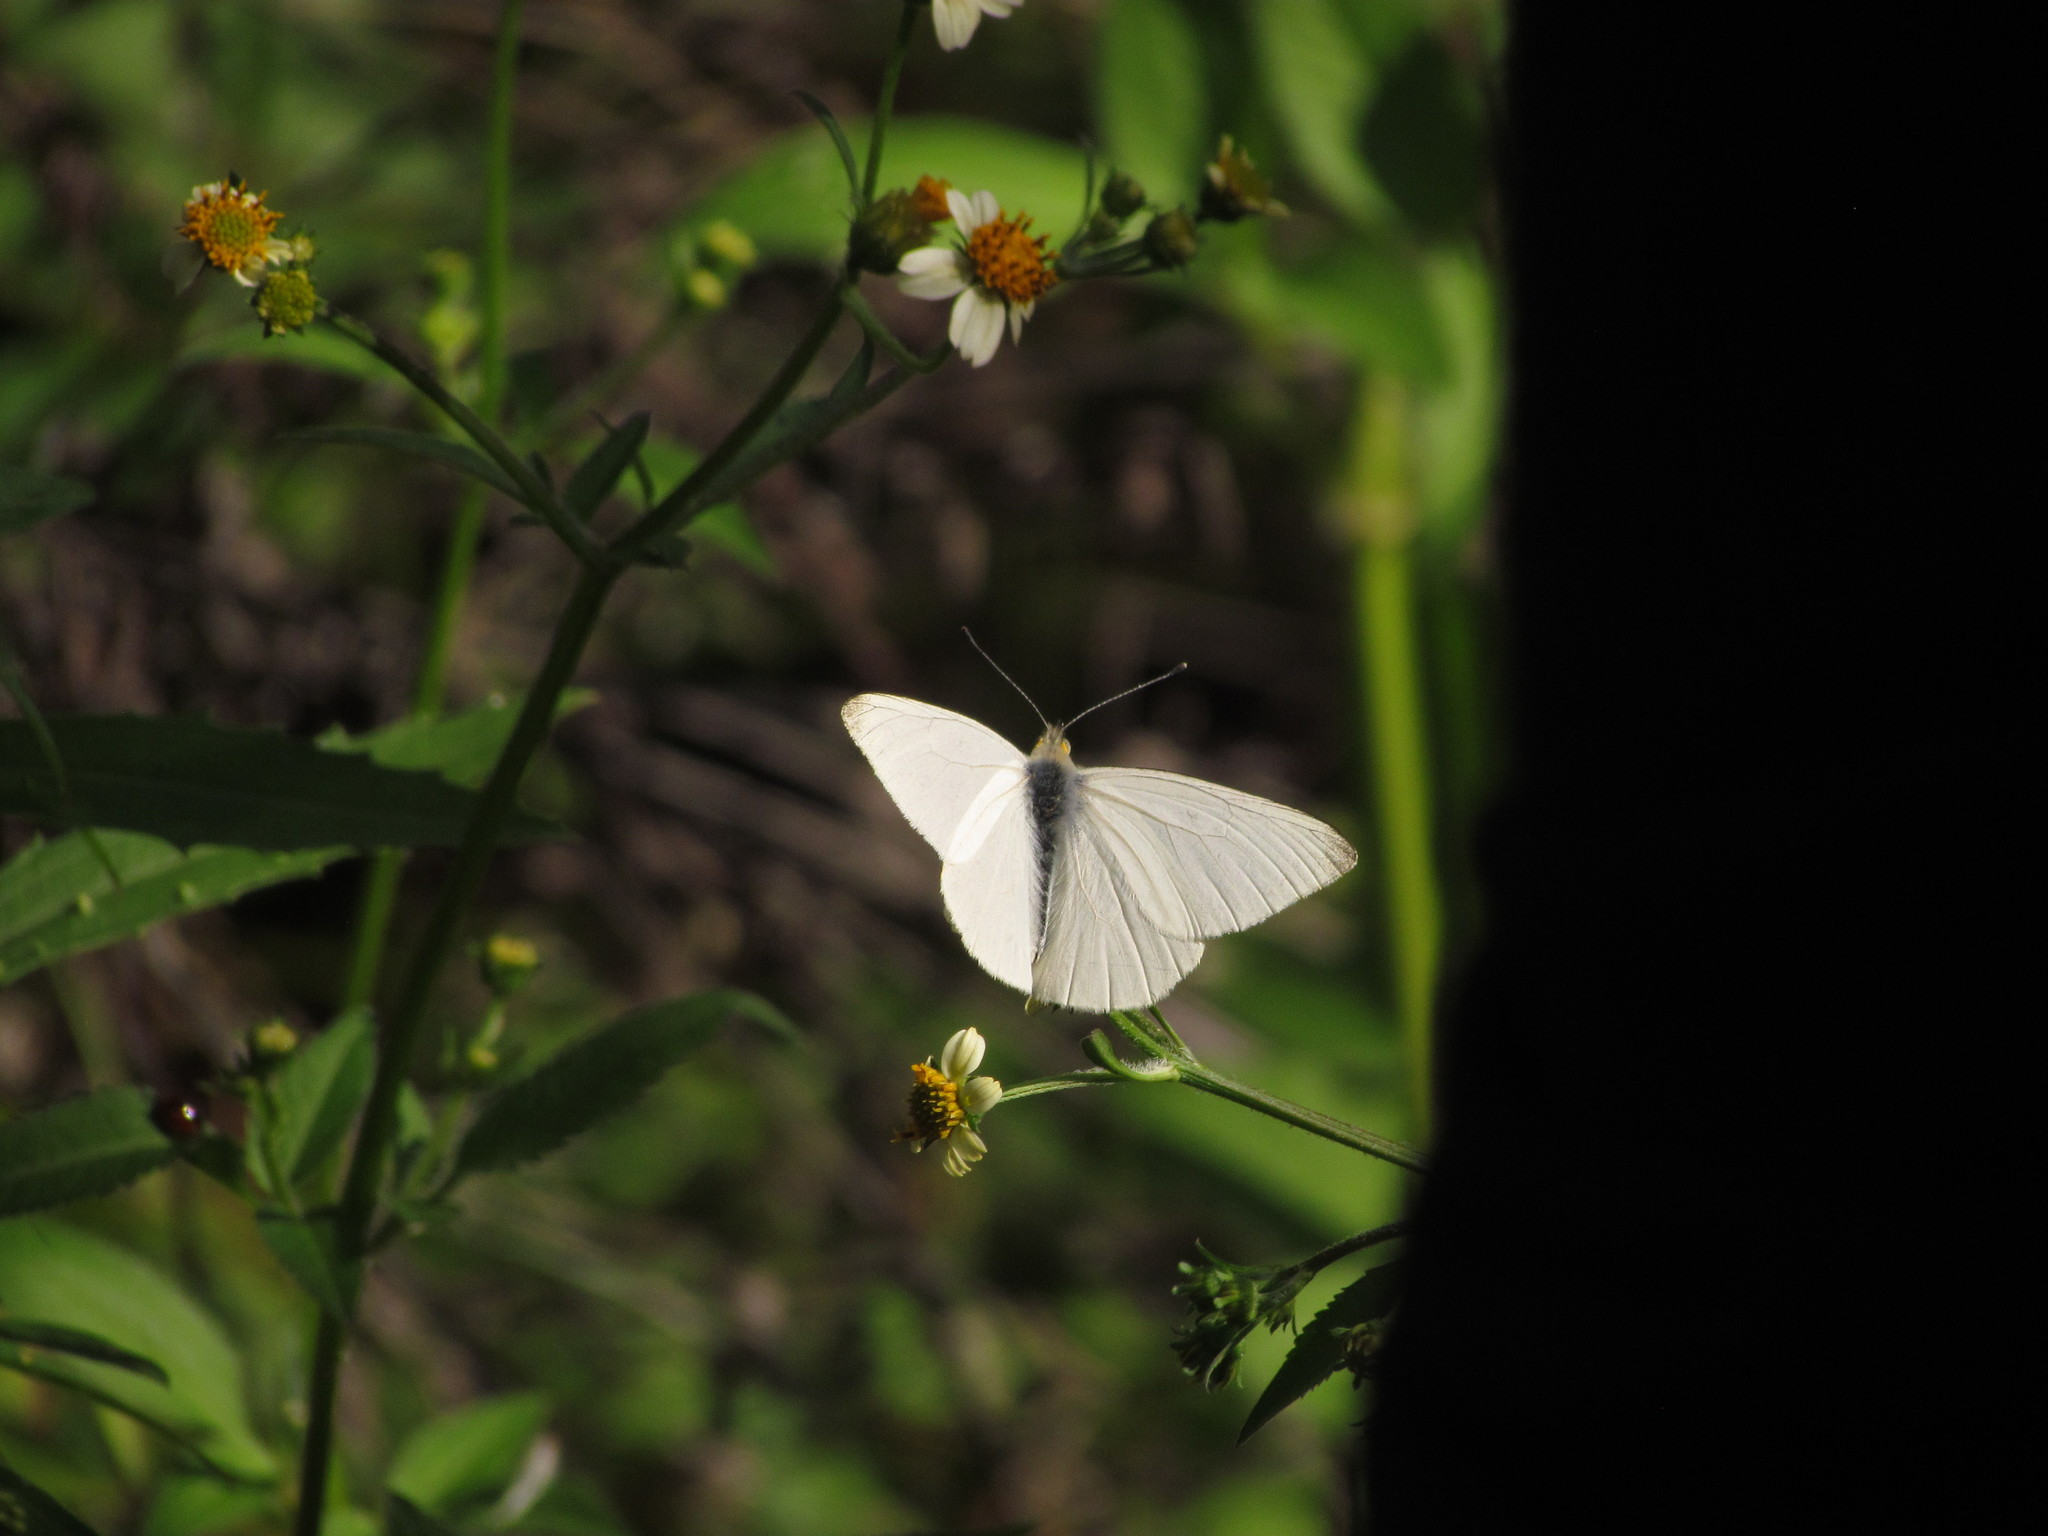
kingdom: Animalia
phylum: Arthropoda
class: Insecta
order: Lepidoptera
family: Pieridae
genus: Theochila
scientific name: Theochila maenacte
